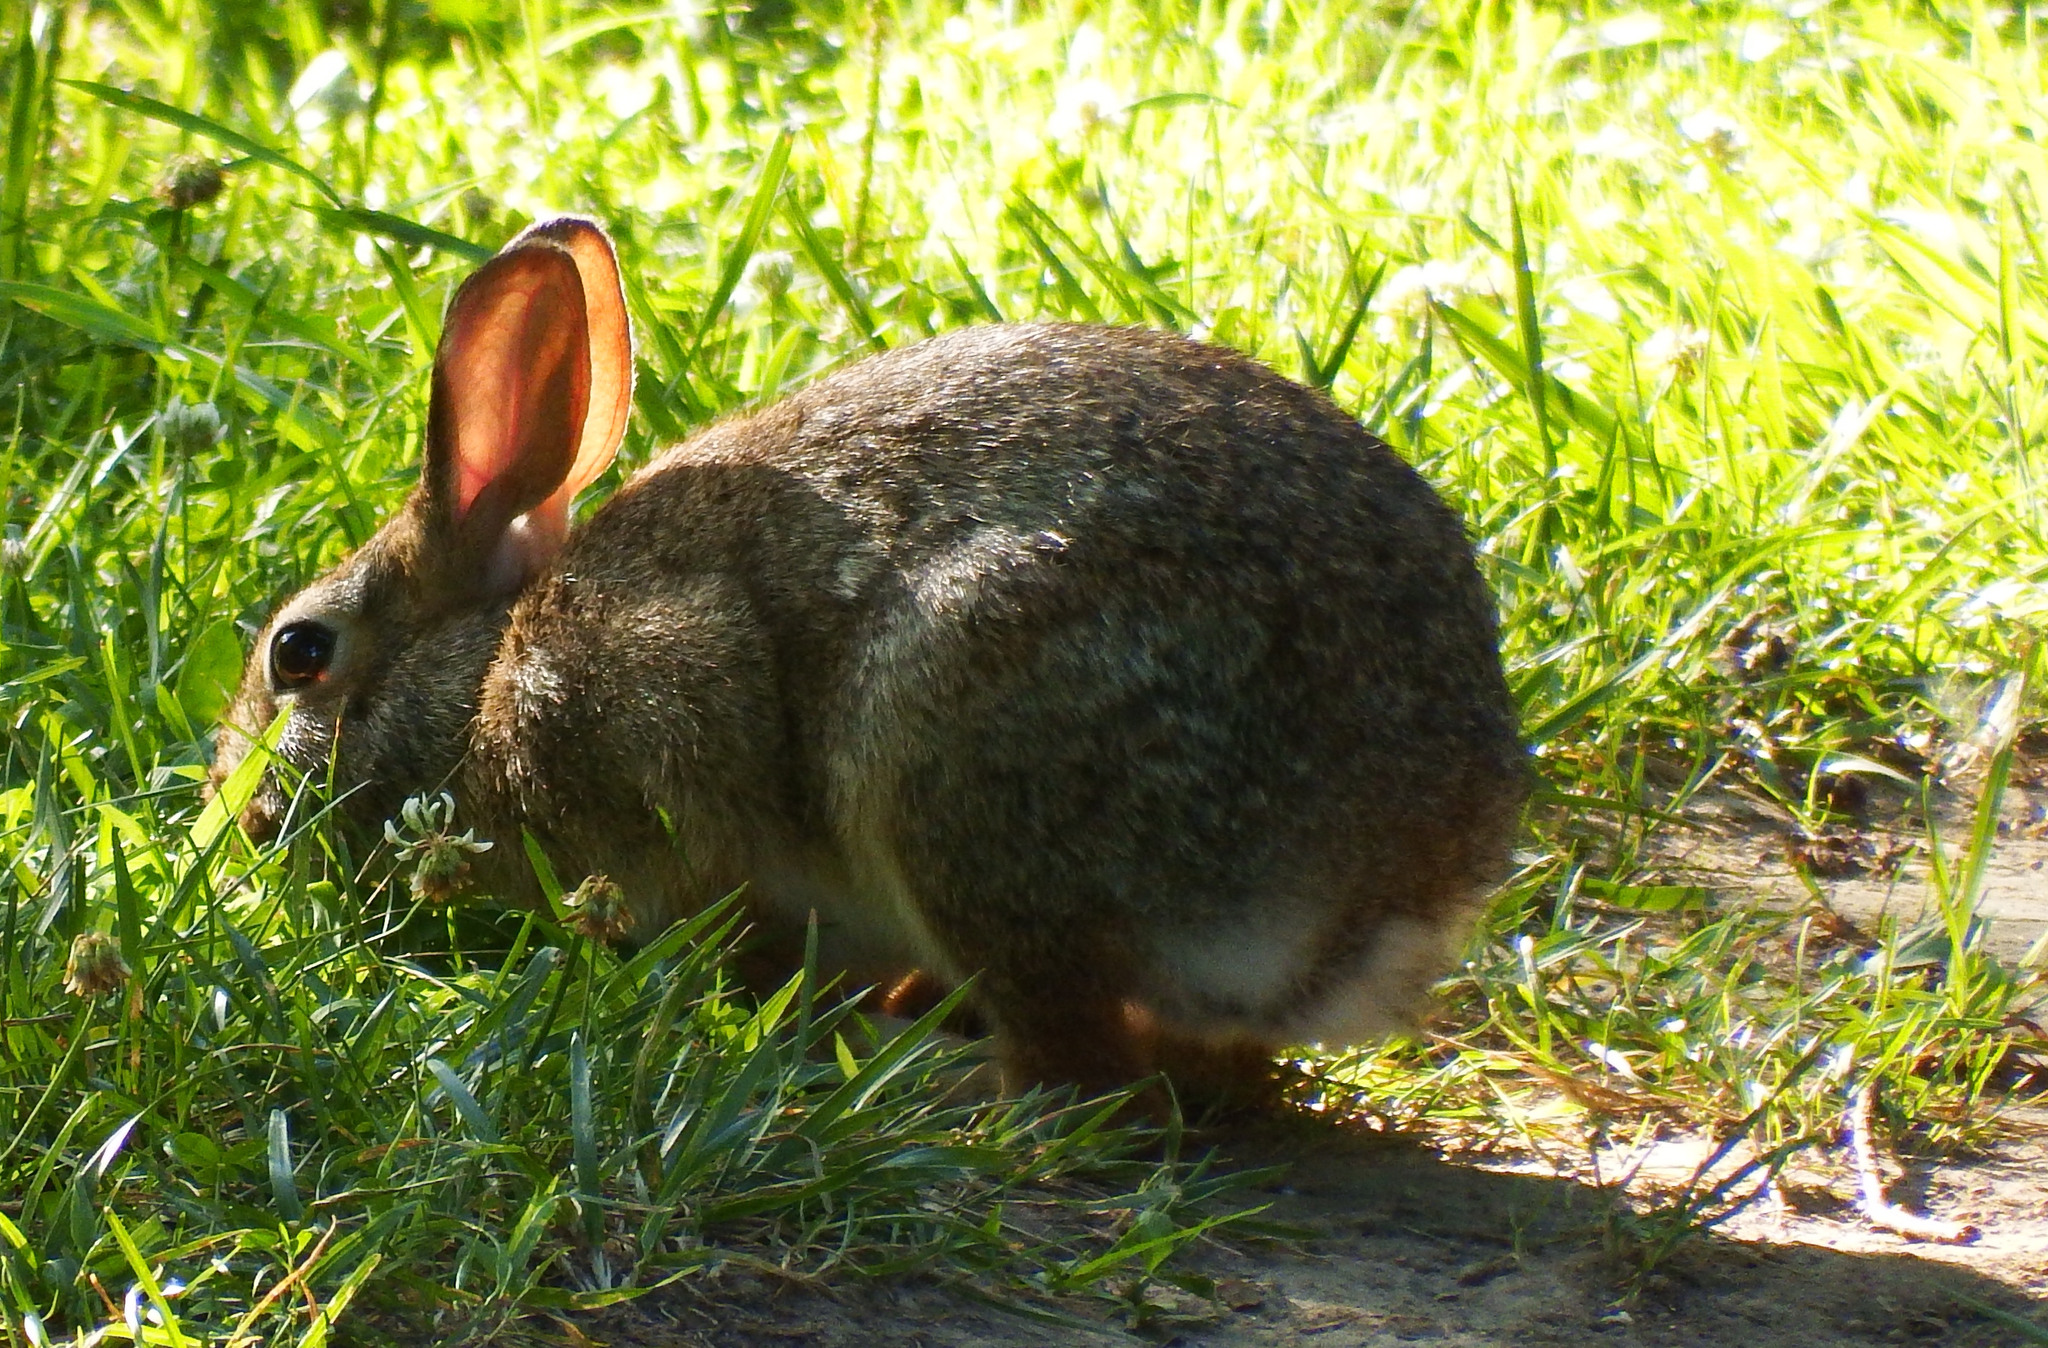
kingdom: Animalia
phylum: Chordata
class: Mammalia
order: Lagomorpha
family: Leporidae
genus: Sylvilagus
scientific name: Sylvilagus floridanus
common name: Eastern cottontail
